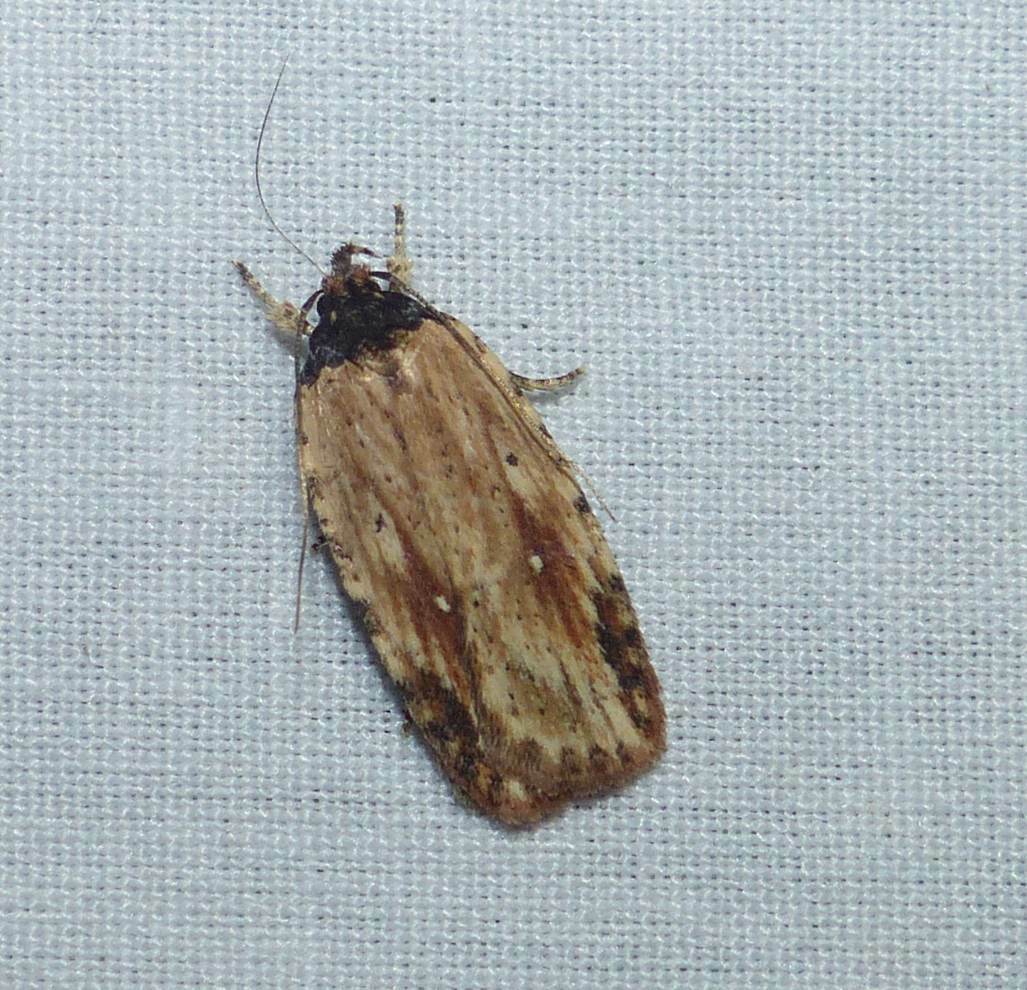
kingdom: Animalia
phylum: Arthropoda
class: Insecta
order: Lepidoptera
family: Depressariidae
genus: Agonopterix
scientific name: Agonopterix atrodorsella
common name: Beggartick leaffolder
